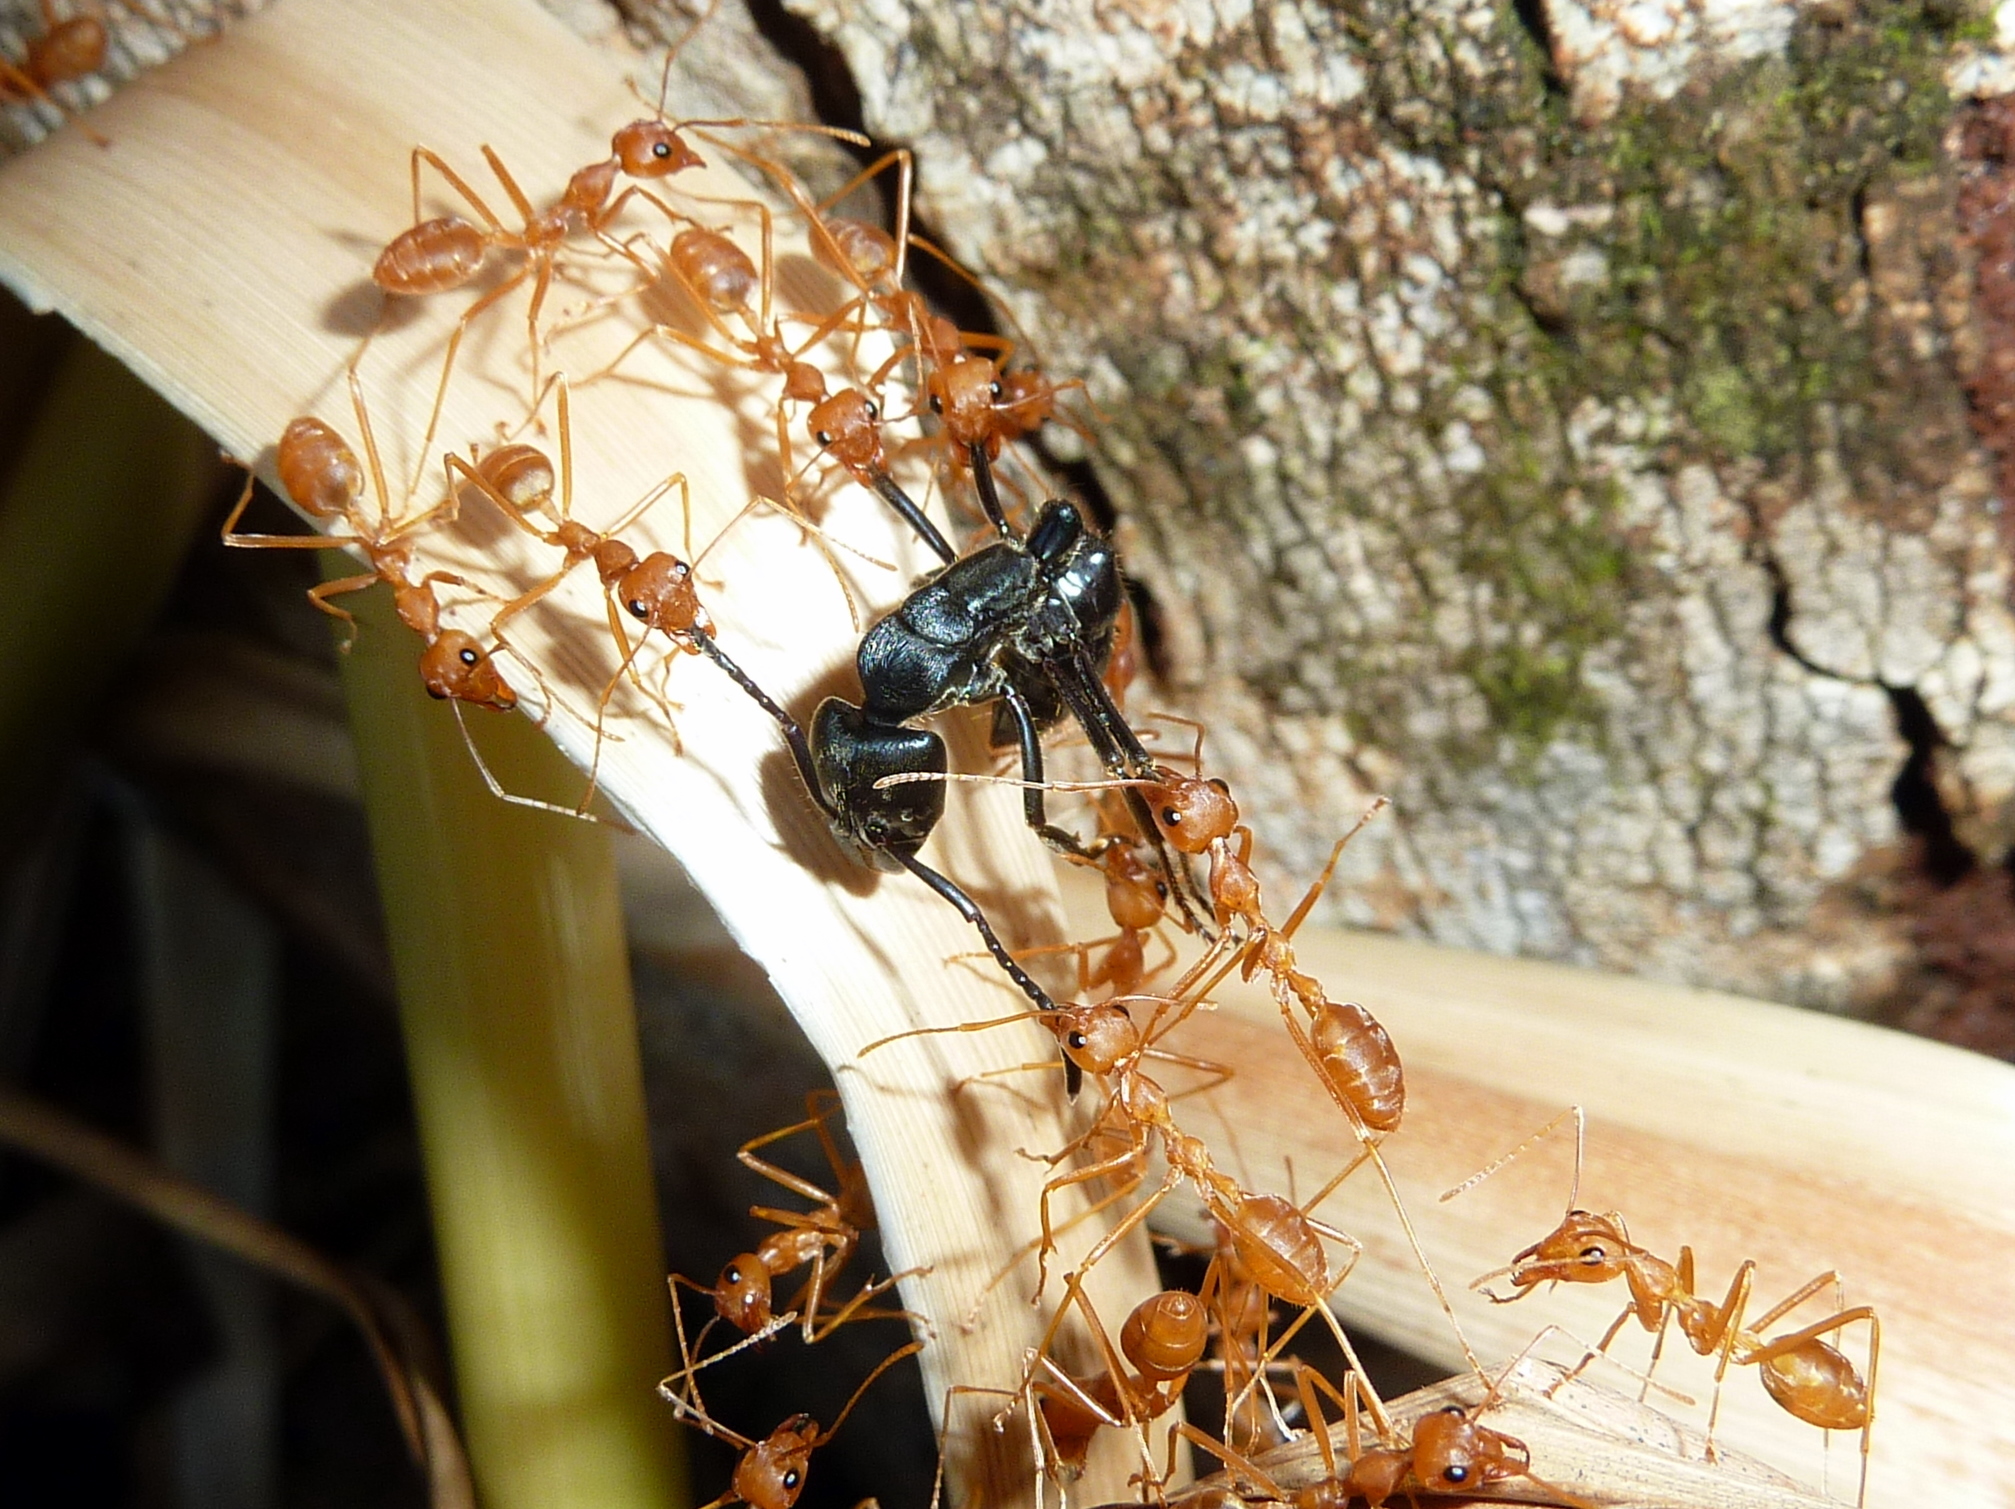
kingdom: Animalia
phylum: Arthropoda
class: Insecta
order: Hymenoptera
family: Formicidae
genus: Oecophylla
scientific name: Oecophylla longinoda
